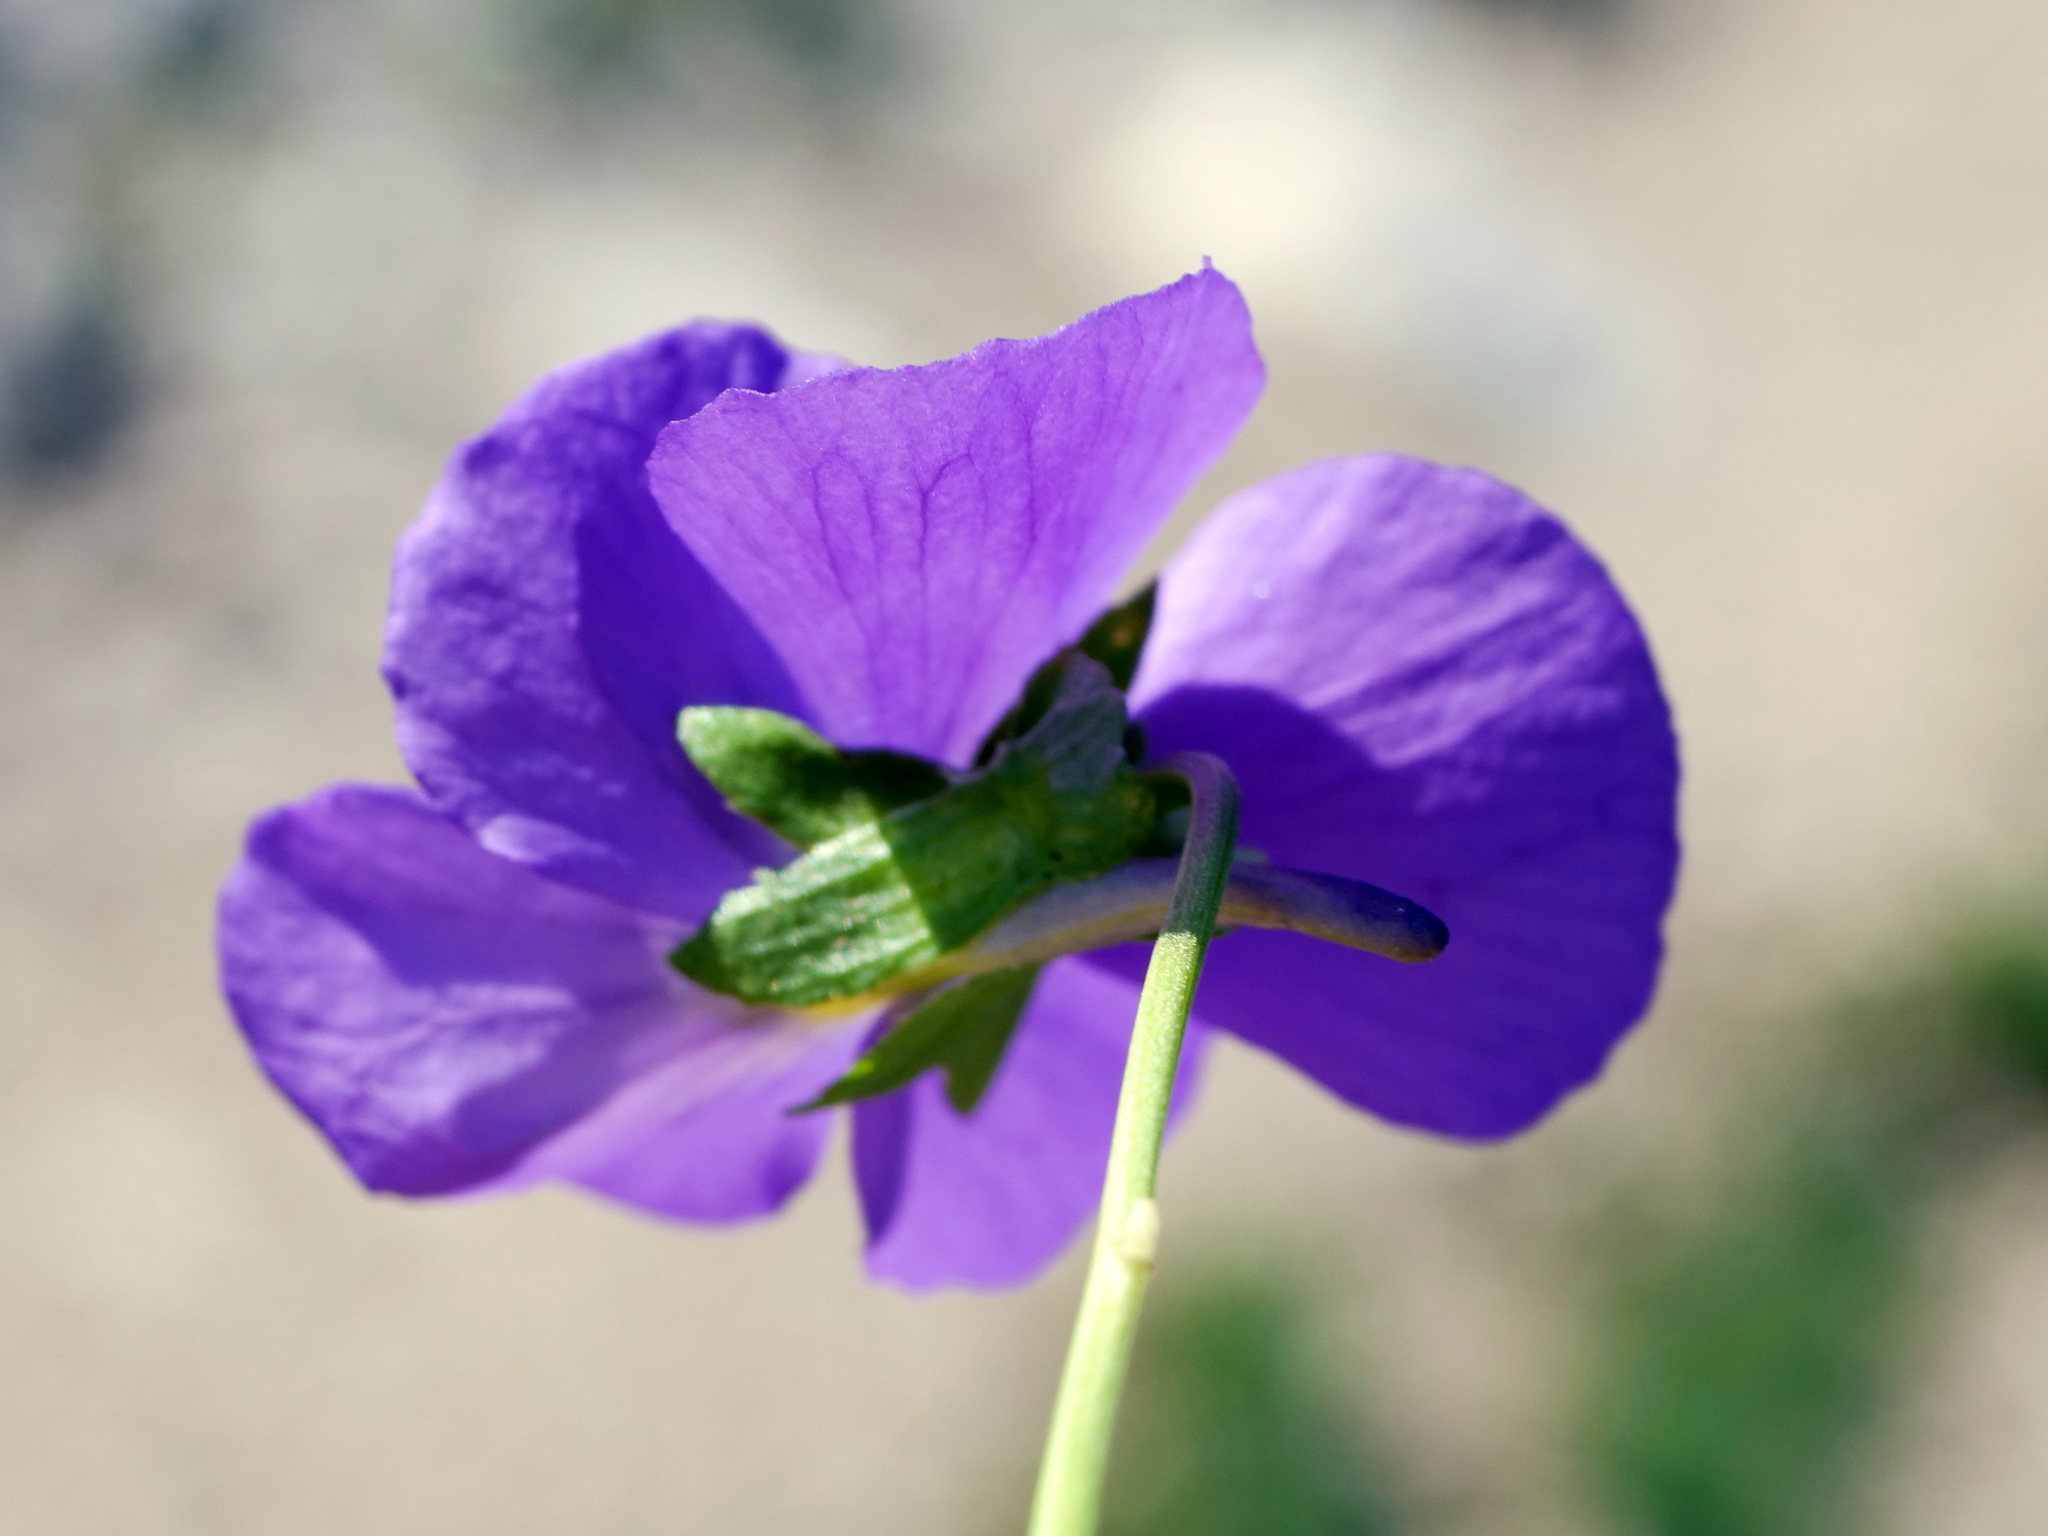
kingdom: Plantae
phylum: Tracheophyta
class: Magnoliopsida
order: Malpighiales
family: Violaceae
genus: Viola
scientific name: Viola calcarata
